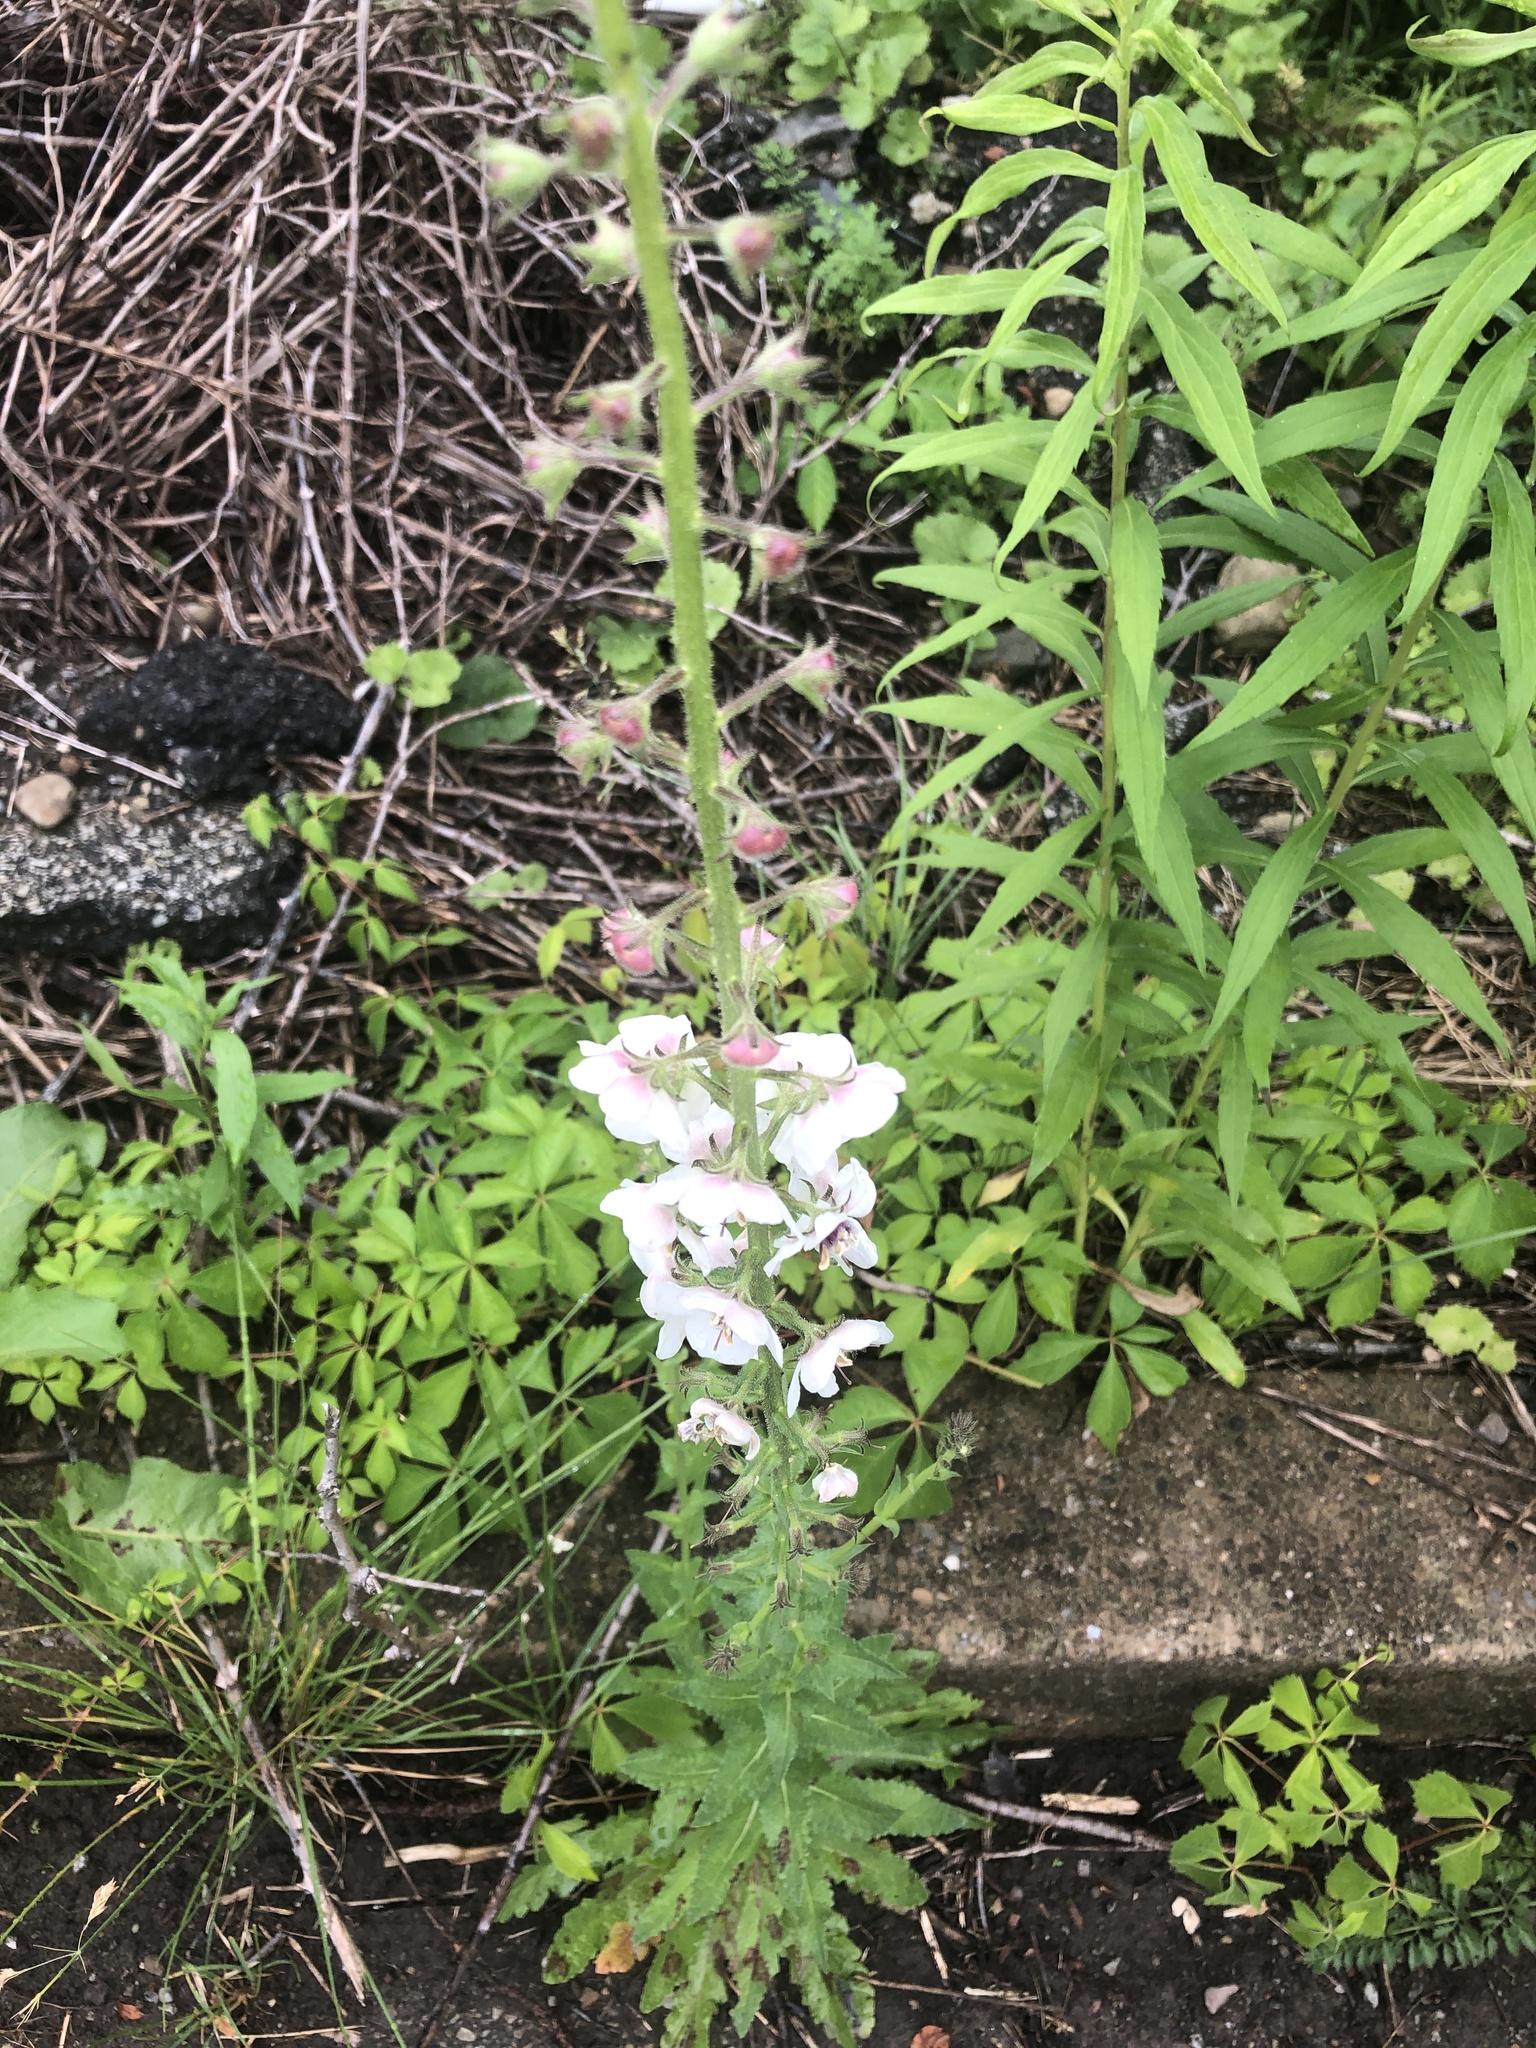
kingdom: Plantae
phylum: Tracheophyta
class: Magnoliopsida
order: Lamiales
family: Scrophulariaceae
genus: Verbascum
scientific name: Verbascum blattaria
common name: Moth mullein
